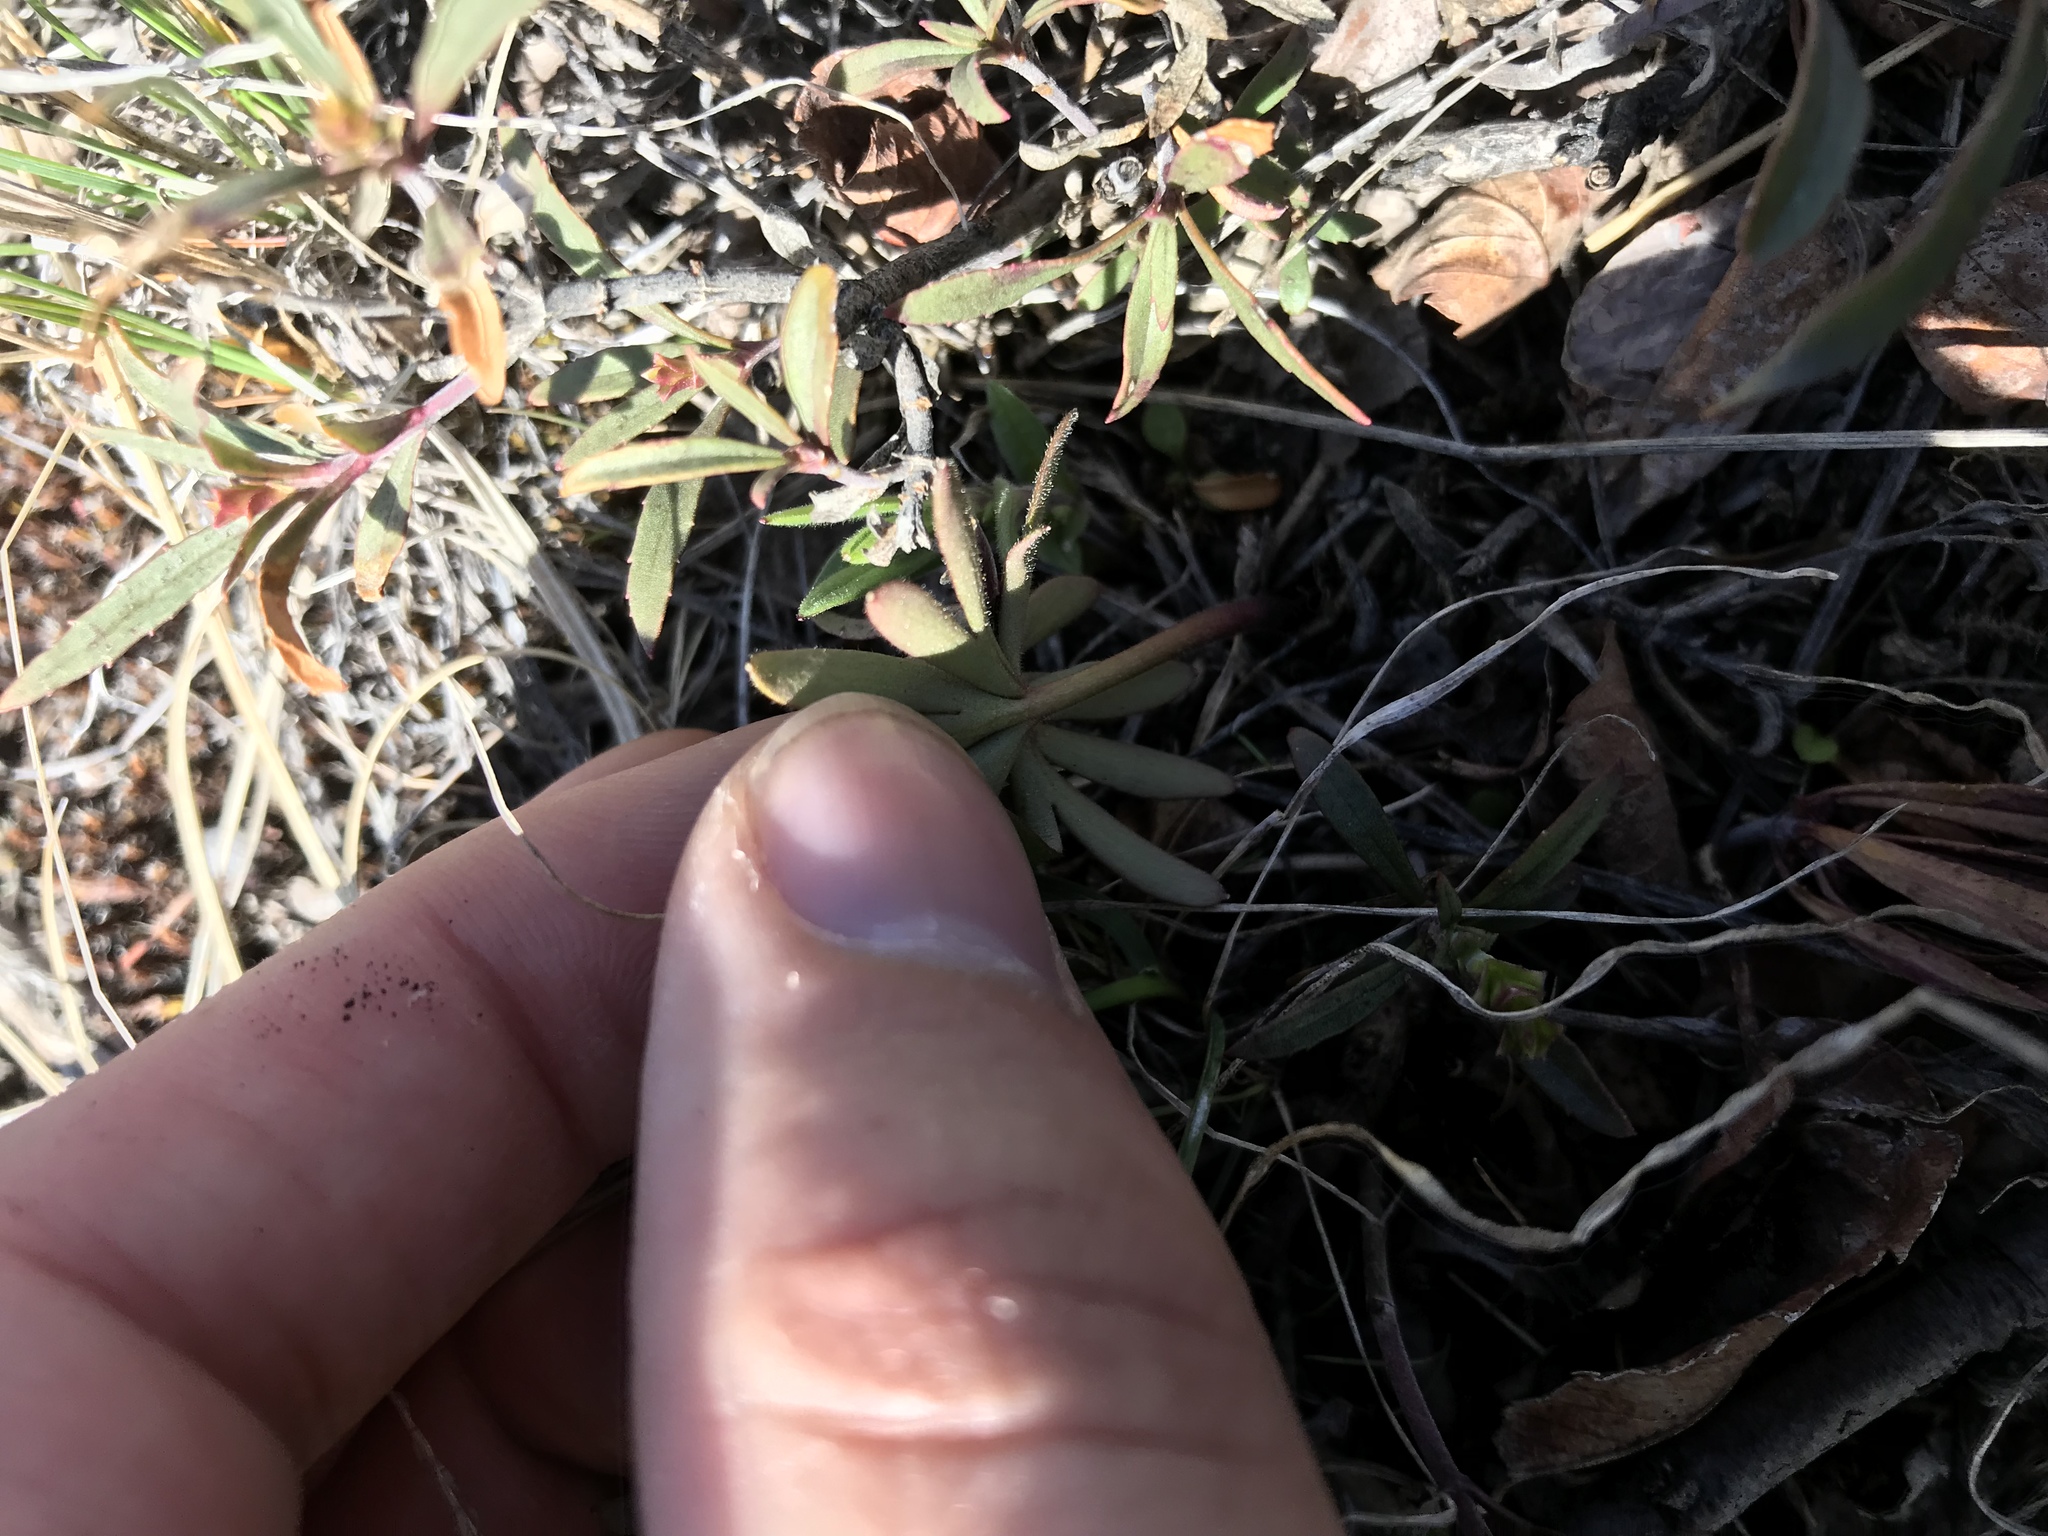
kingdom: Plantae
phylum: Tracheophyta
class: Magnoliopsida
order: Ranunculales
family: Ranunculaceae
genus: Delphinium
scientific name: Delphinium nuttallianum
